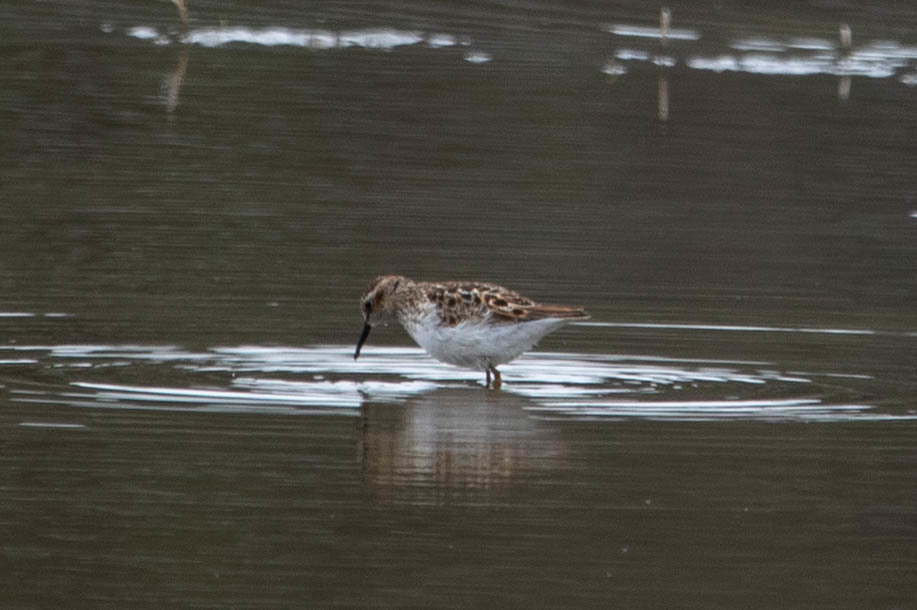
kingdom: Animalia
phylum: Chordata
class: Aves
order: Charadriiformes
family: Scolopacidae
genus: Calidris
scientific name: Calidris minutilla
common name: Least sandpiper
